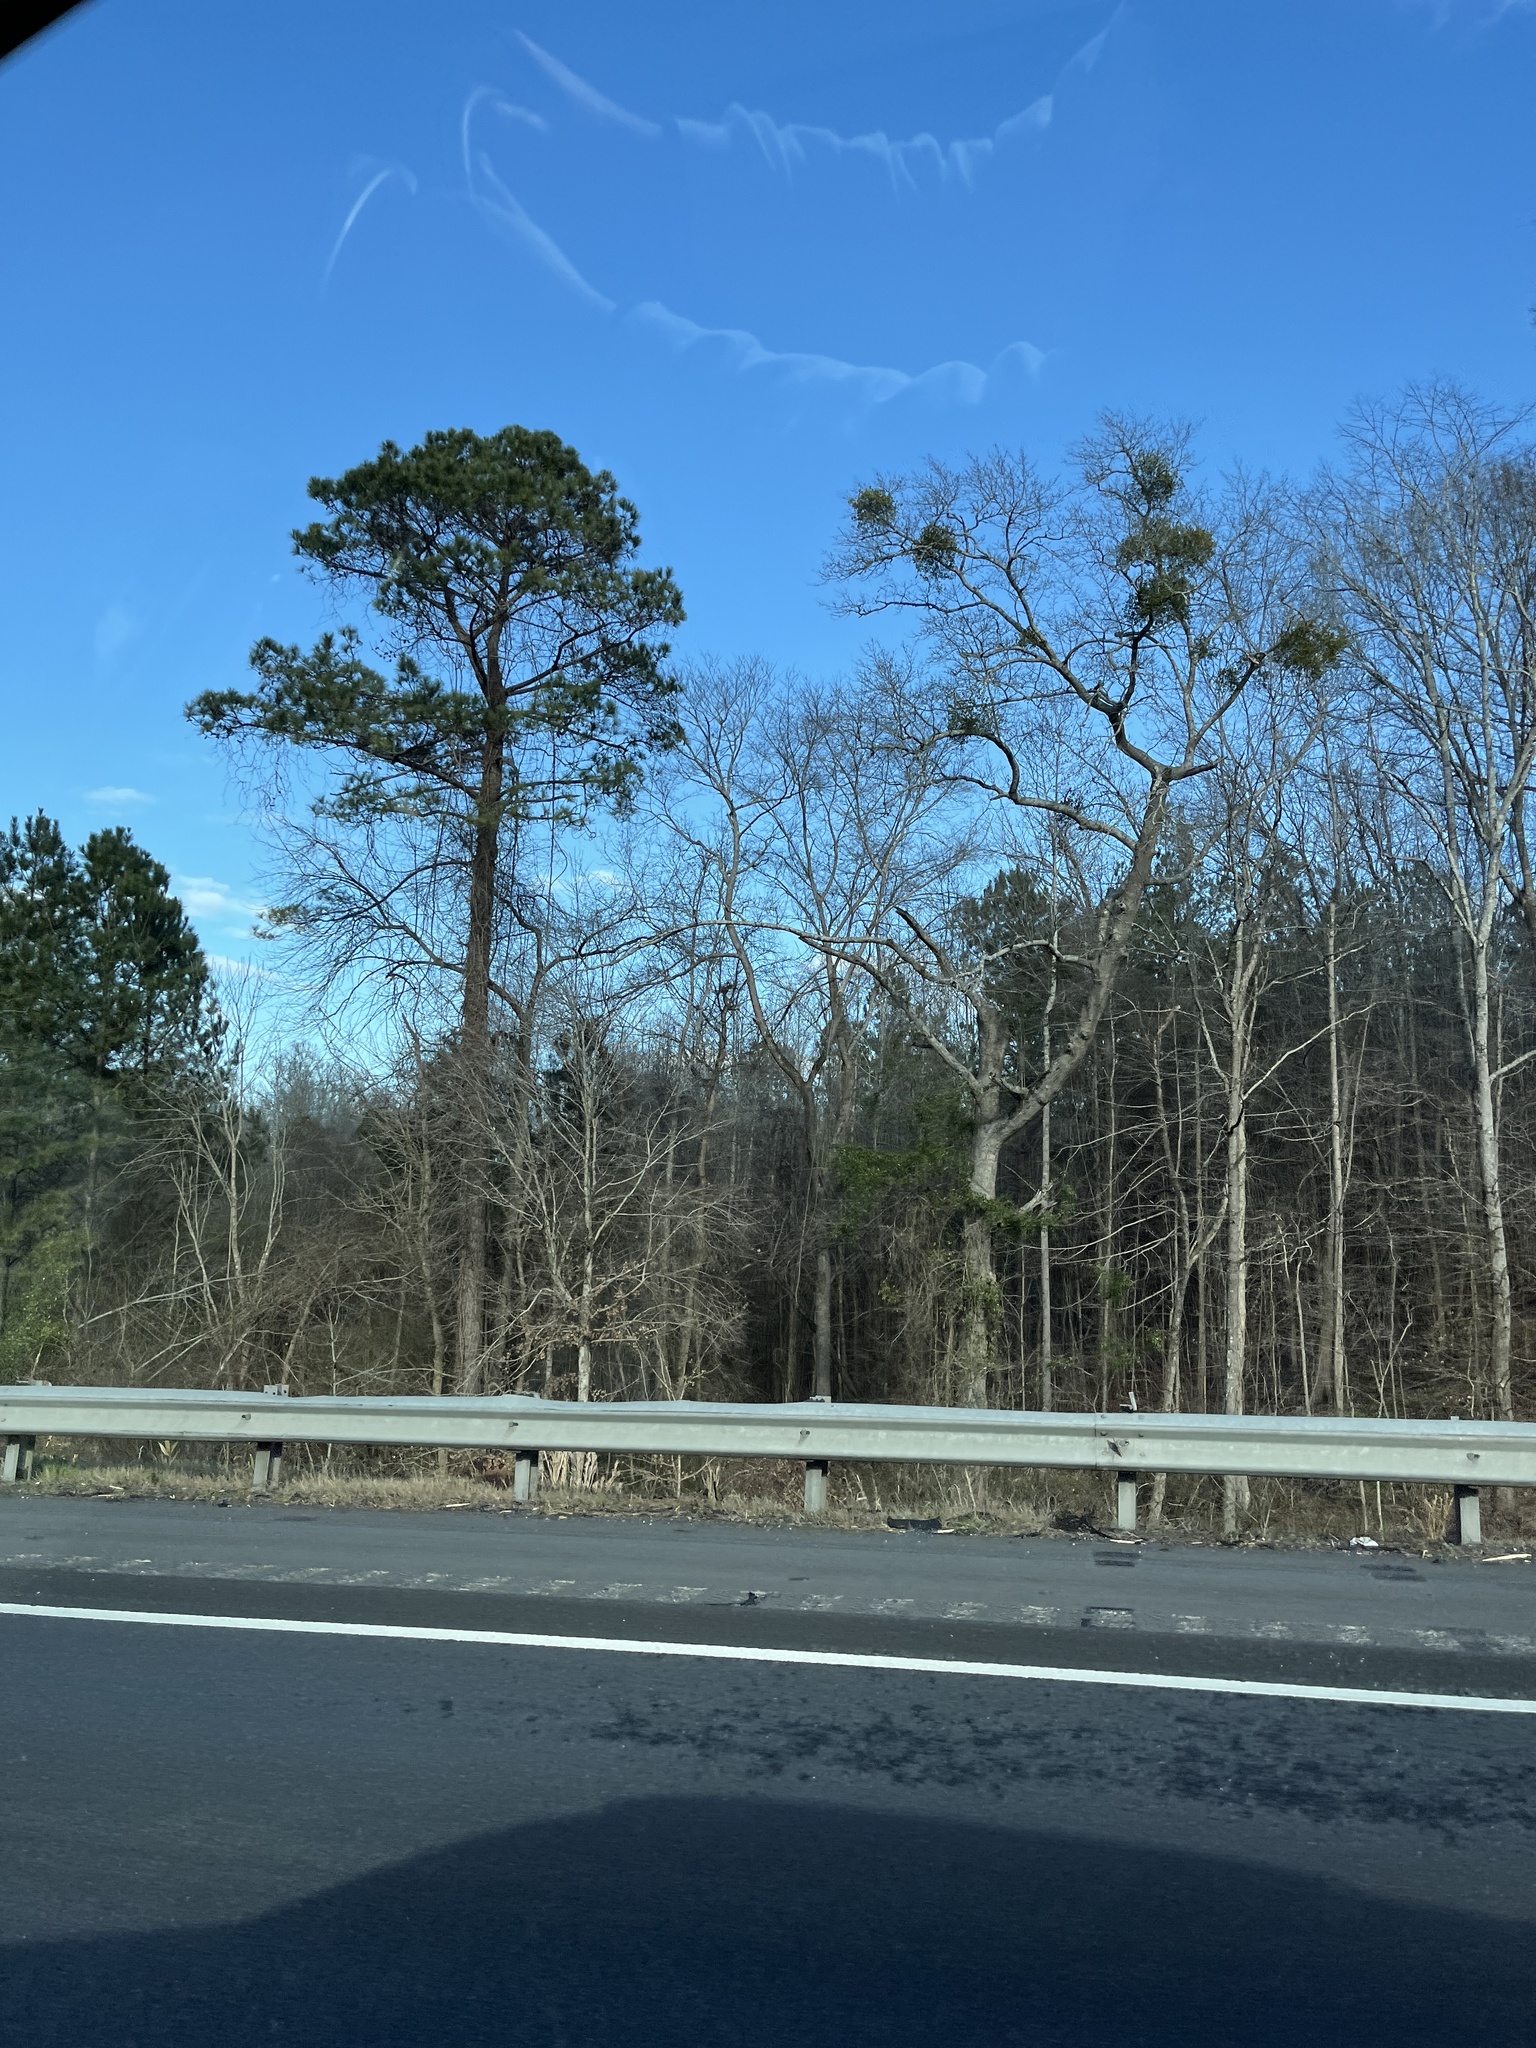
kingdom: Plantae
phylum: Tracheophyta
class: Magnoliopsida
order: Santalales
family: Viscaceae
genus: Phoradendron
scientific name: Phoradendron leucarpum
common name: Pacific mistletoe
